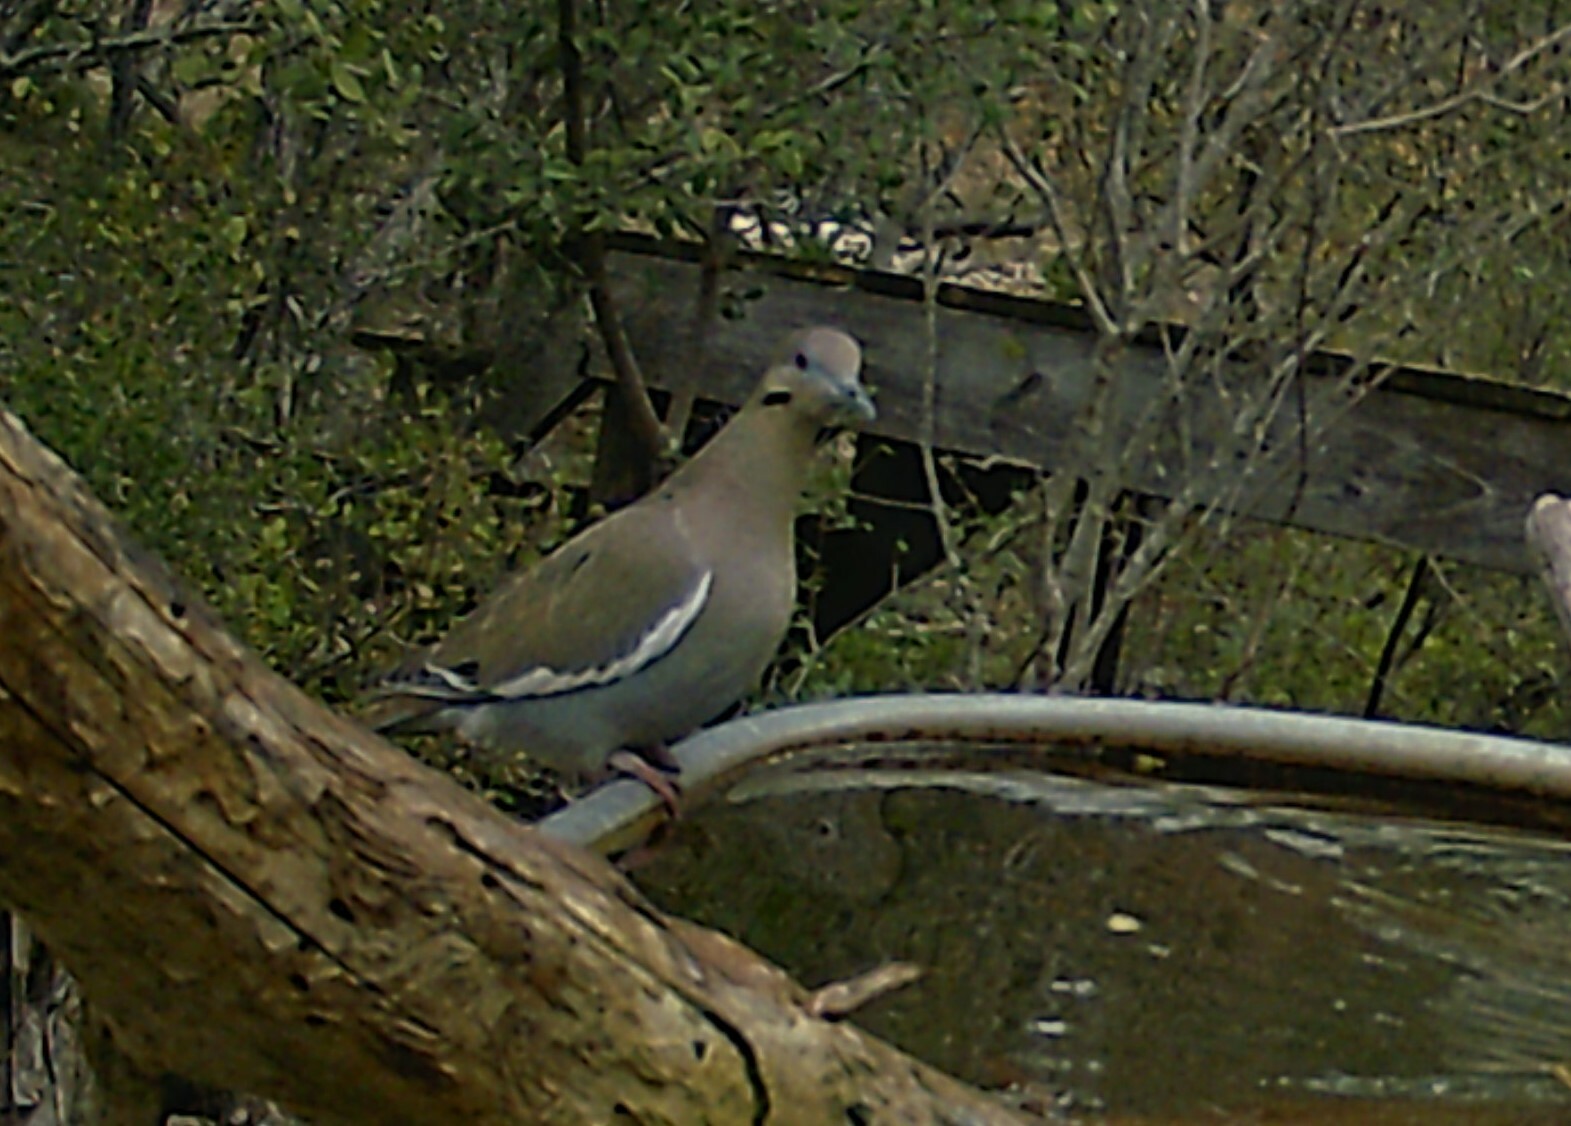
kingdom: Animalia
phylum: Chordata
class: Aves
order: Columbiformes
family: Columbidae
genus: Zenaida
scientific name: Zenaida asiatica
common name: White-winged dove
